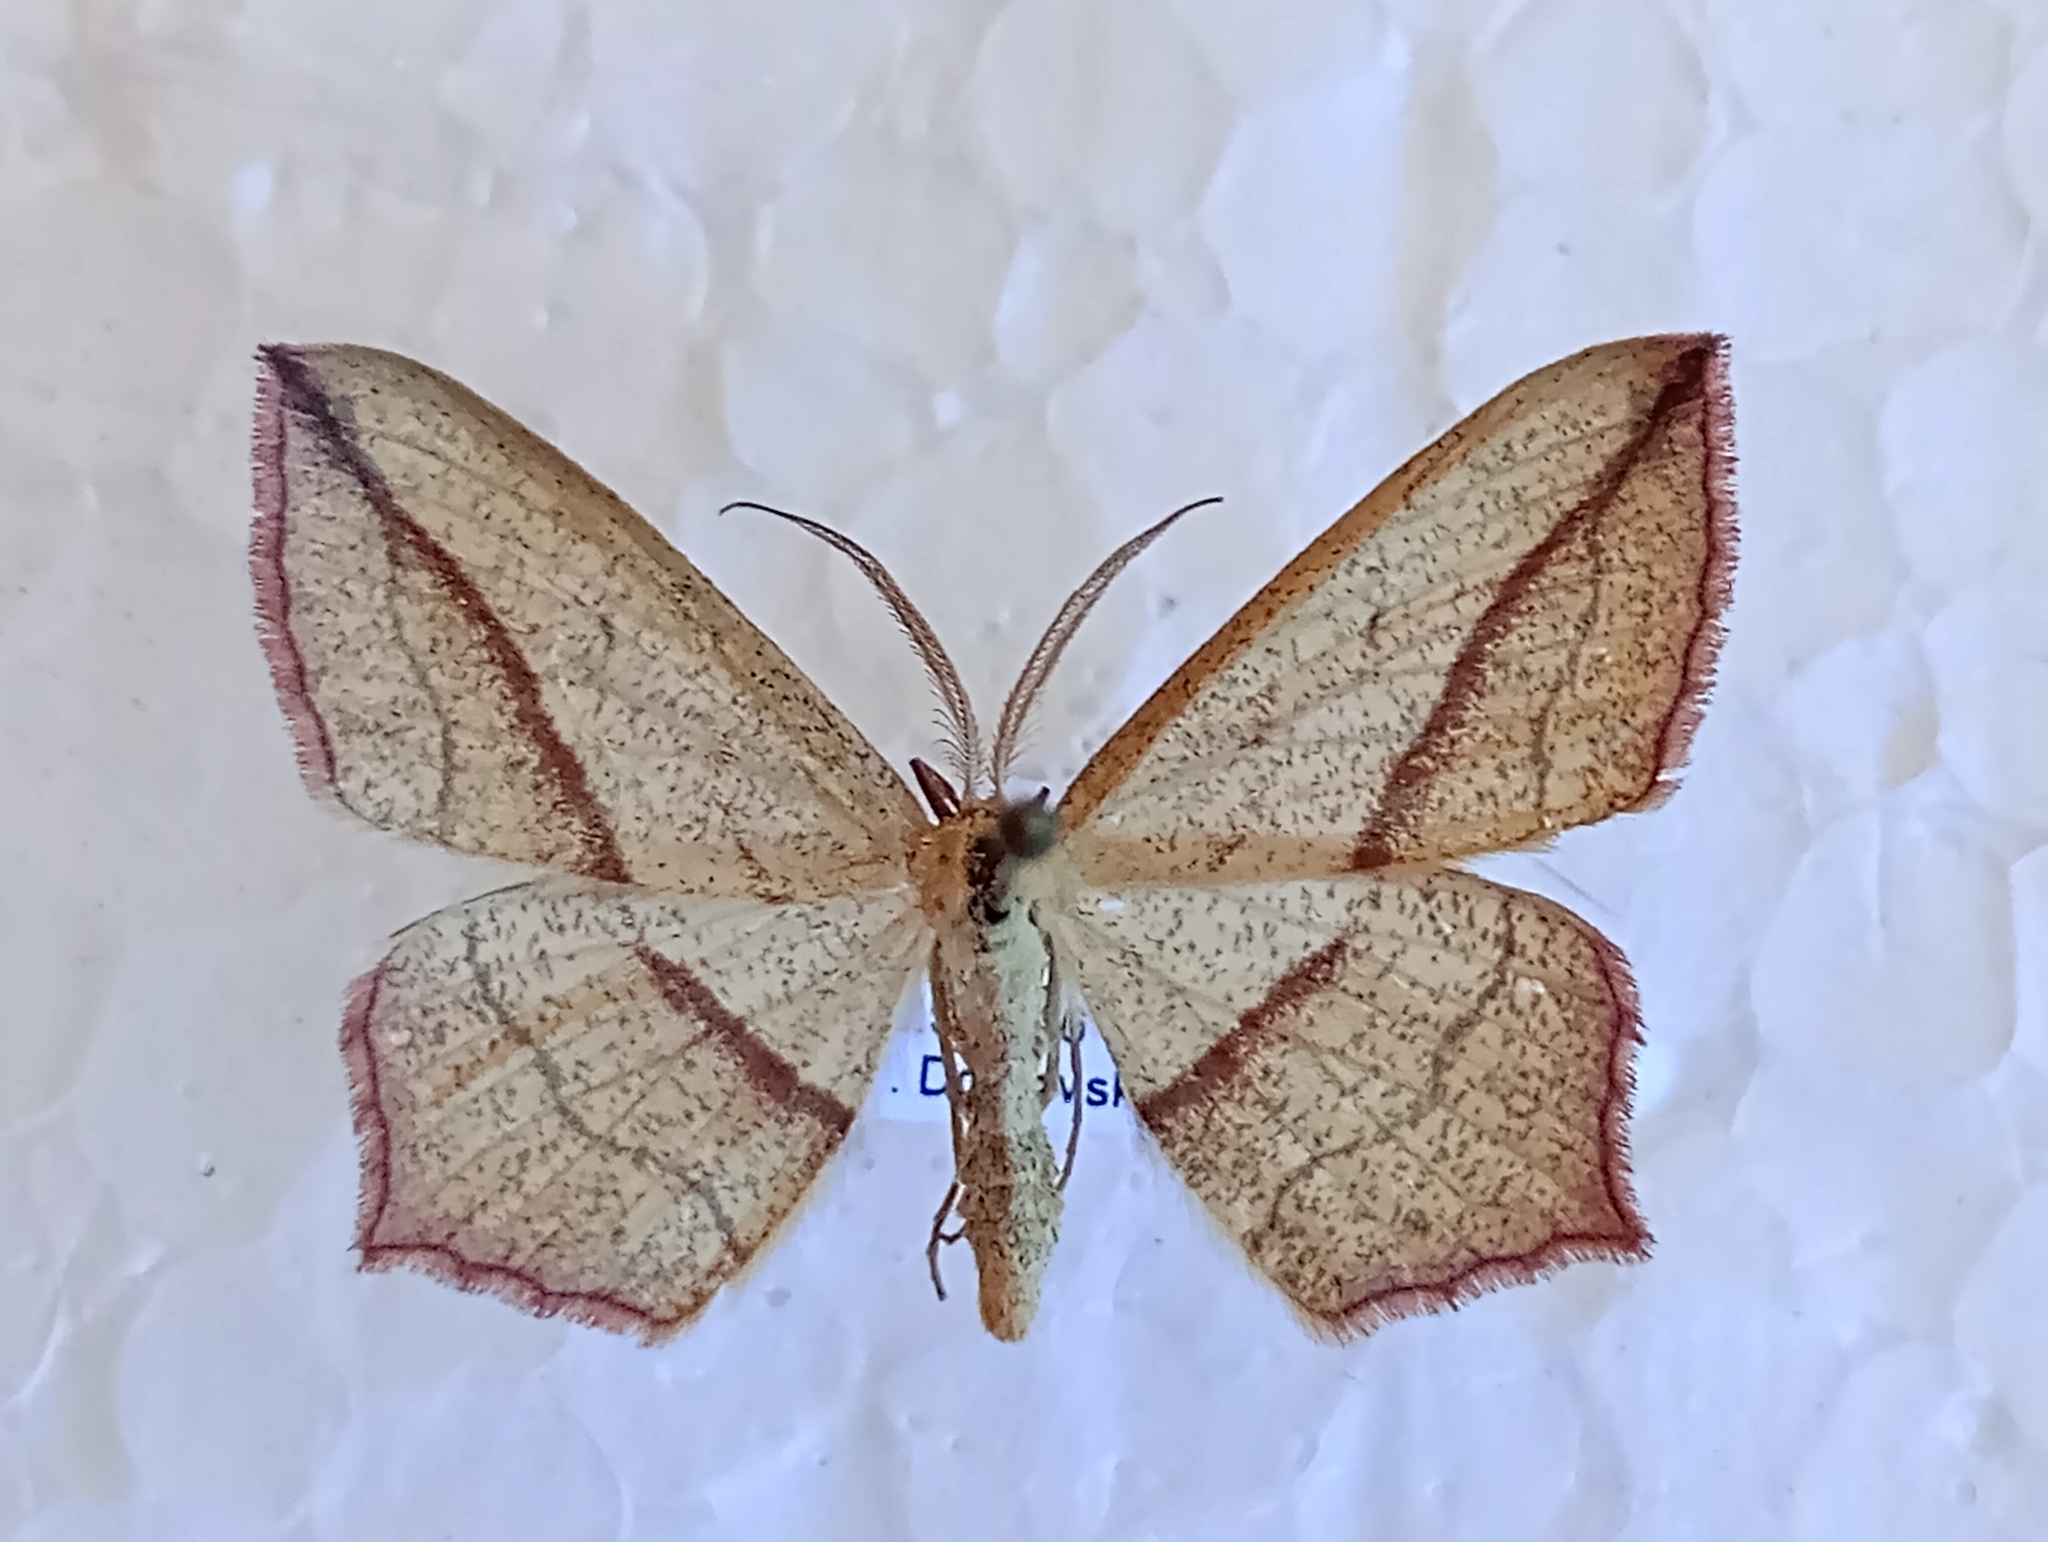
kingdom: Animalia
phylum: Arthropoda
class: Insecta
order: Lepidoptera
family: Geometridae
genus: Timandra
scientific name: Timandra comae
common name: Blood-vein
